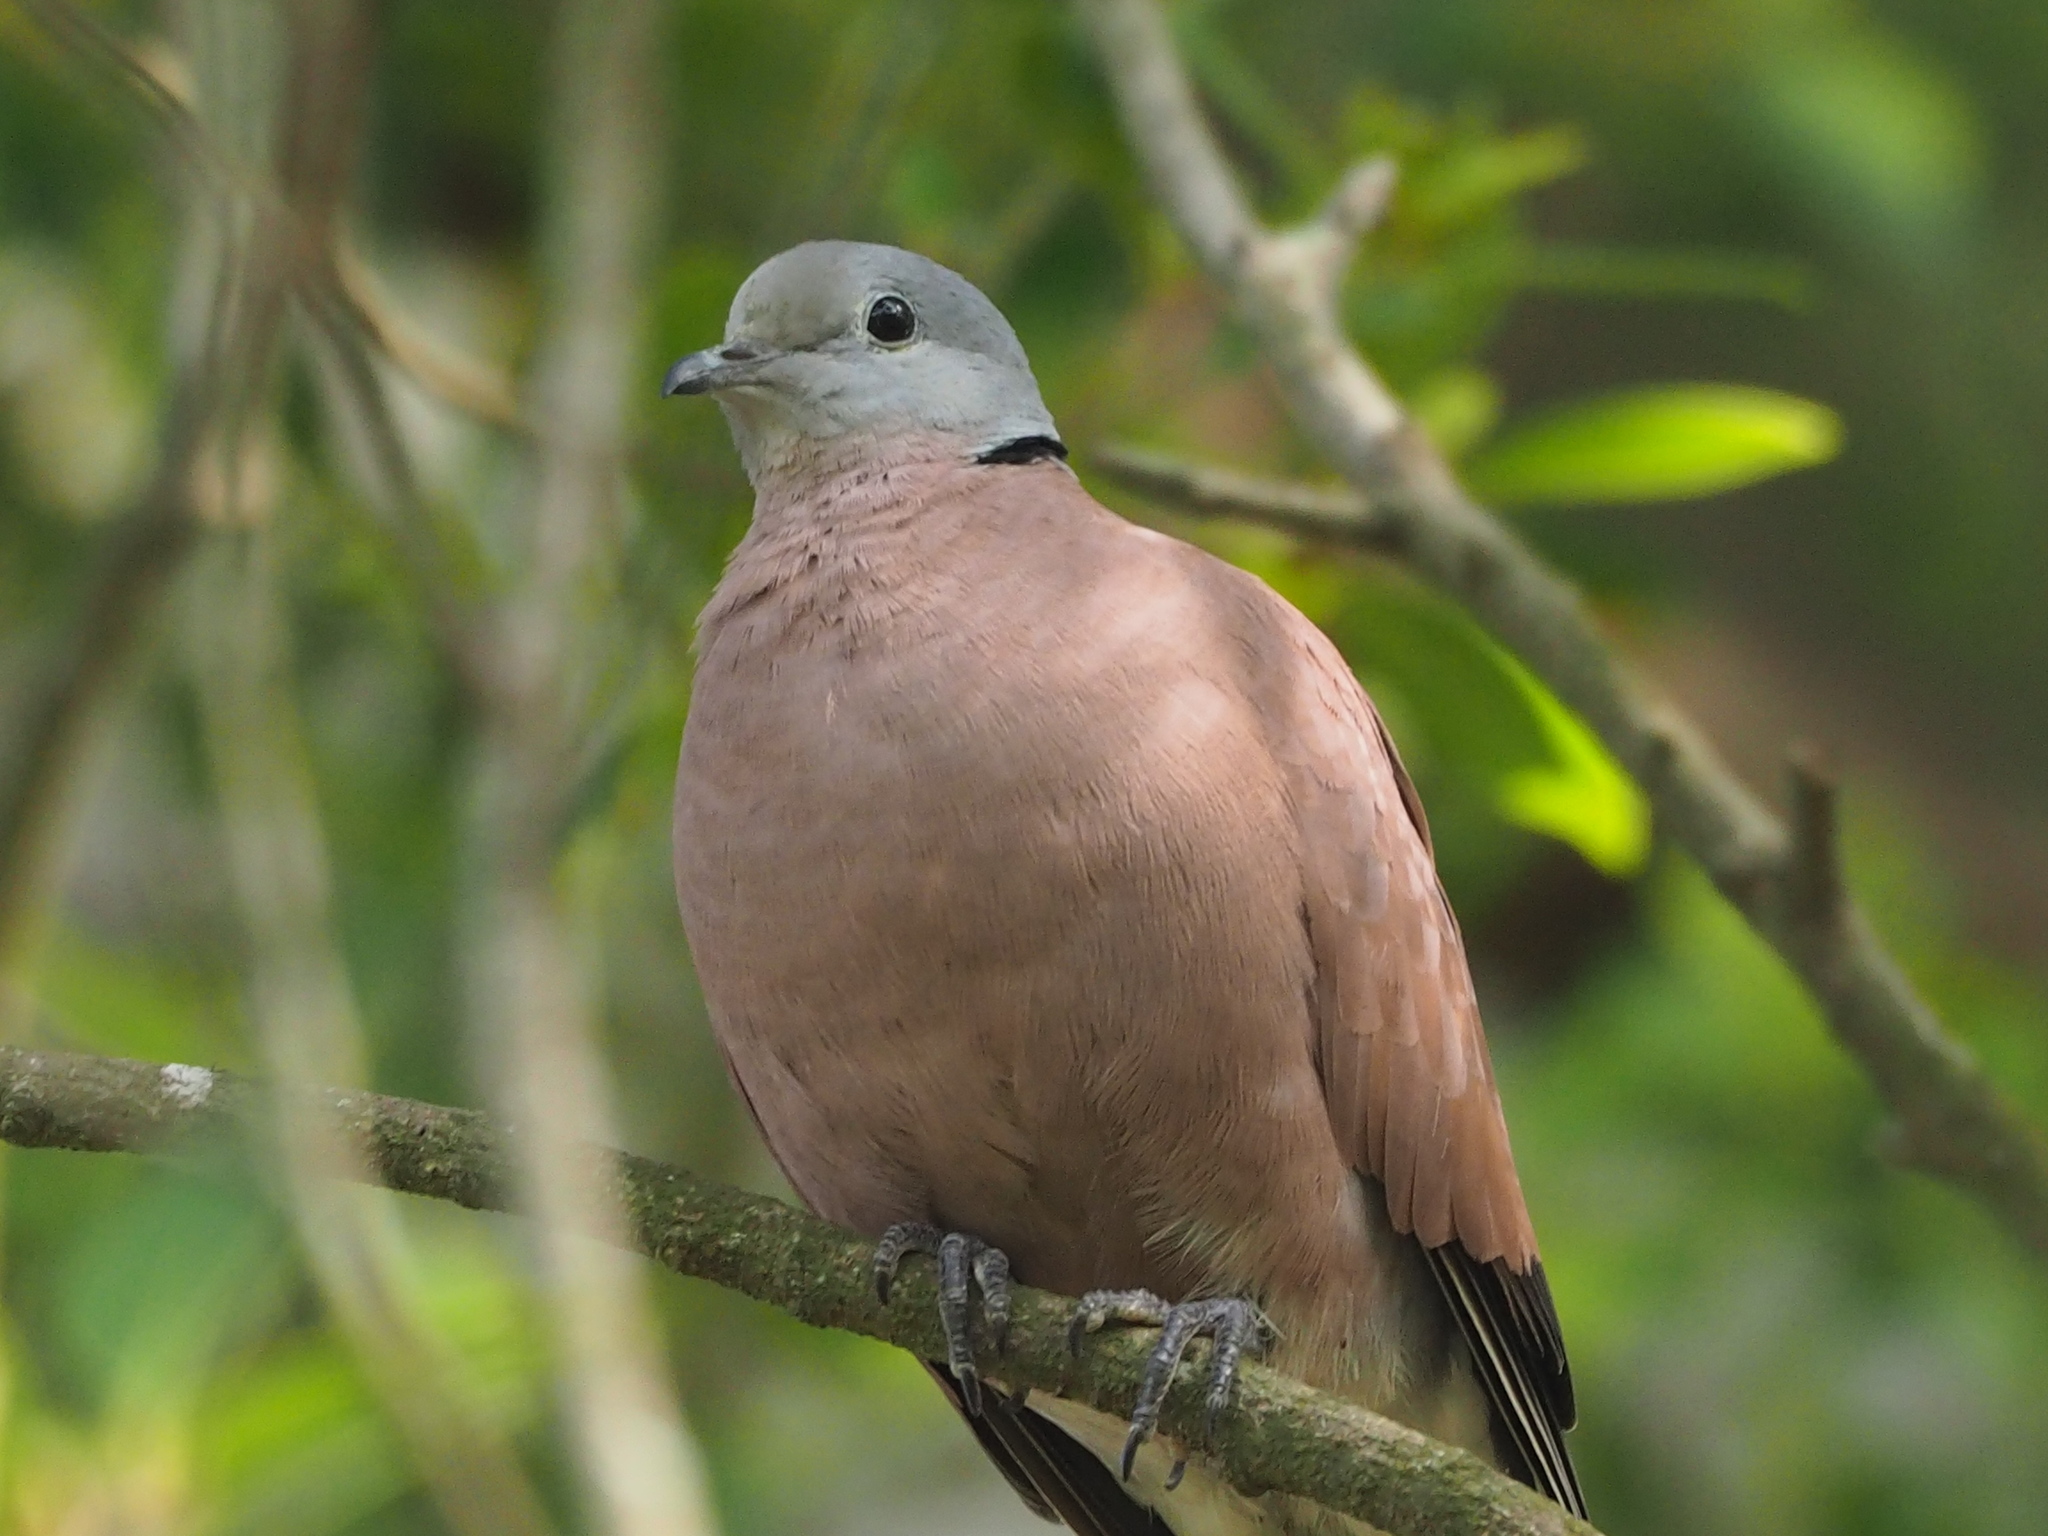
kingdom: Animalia
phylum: Chordata
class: Aves
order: Columbiformes
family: Columbidae
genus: Streptopelia
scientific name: Streptopelia tranquebarica
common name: Red turtle dove
